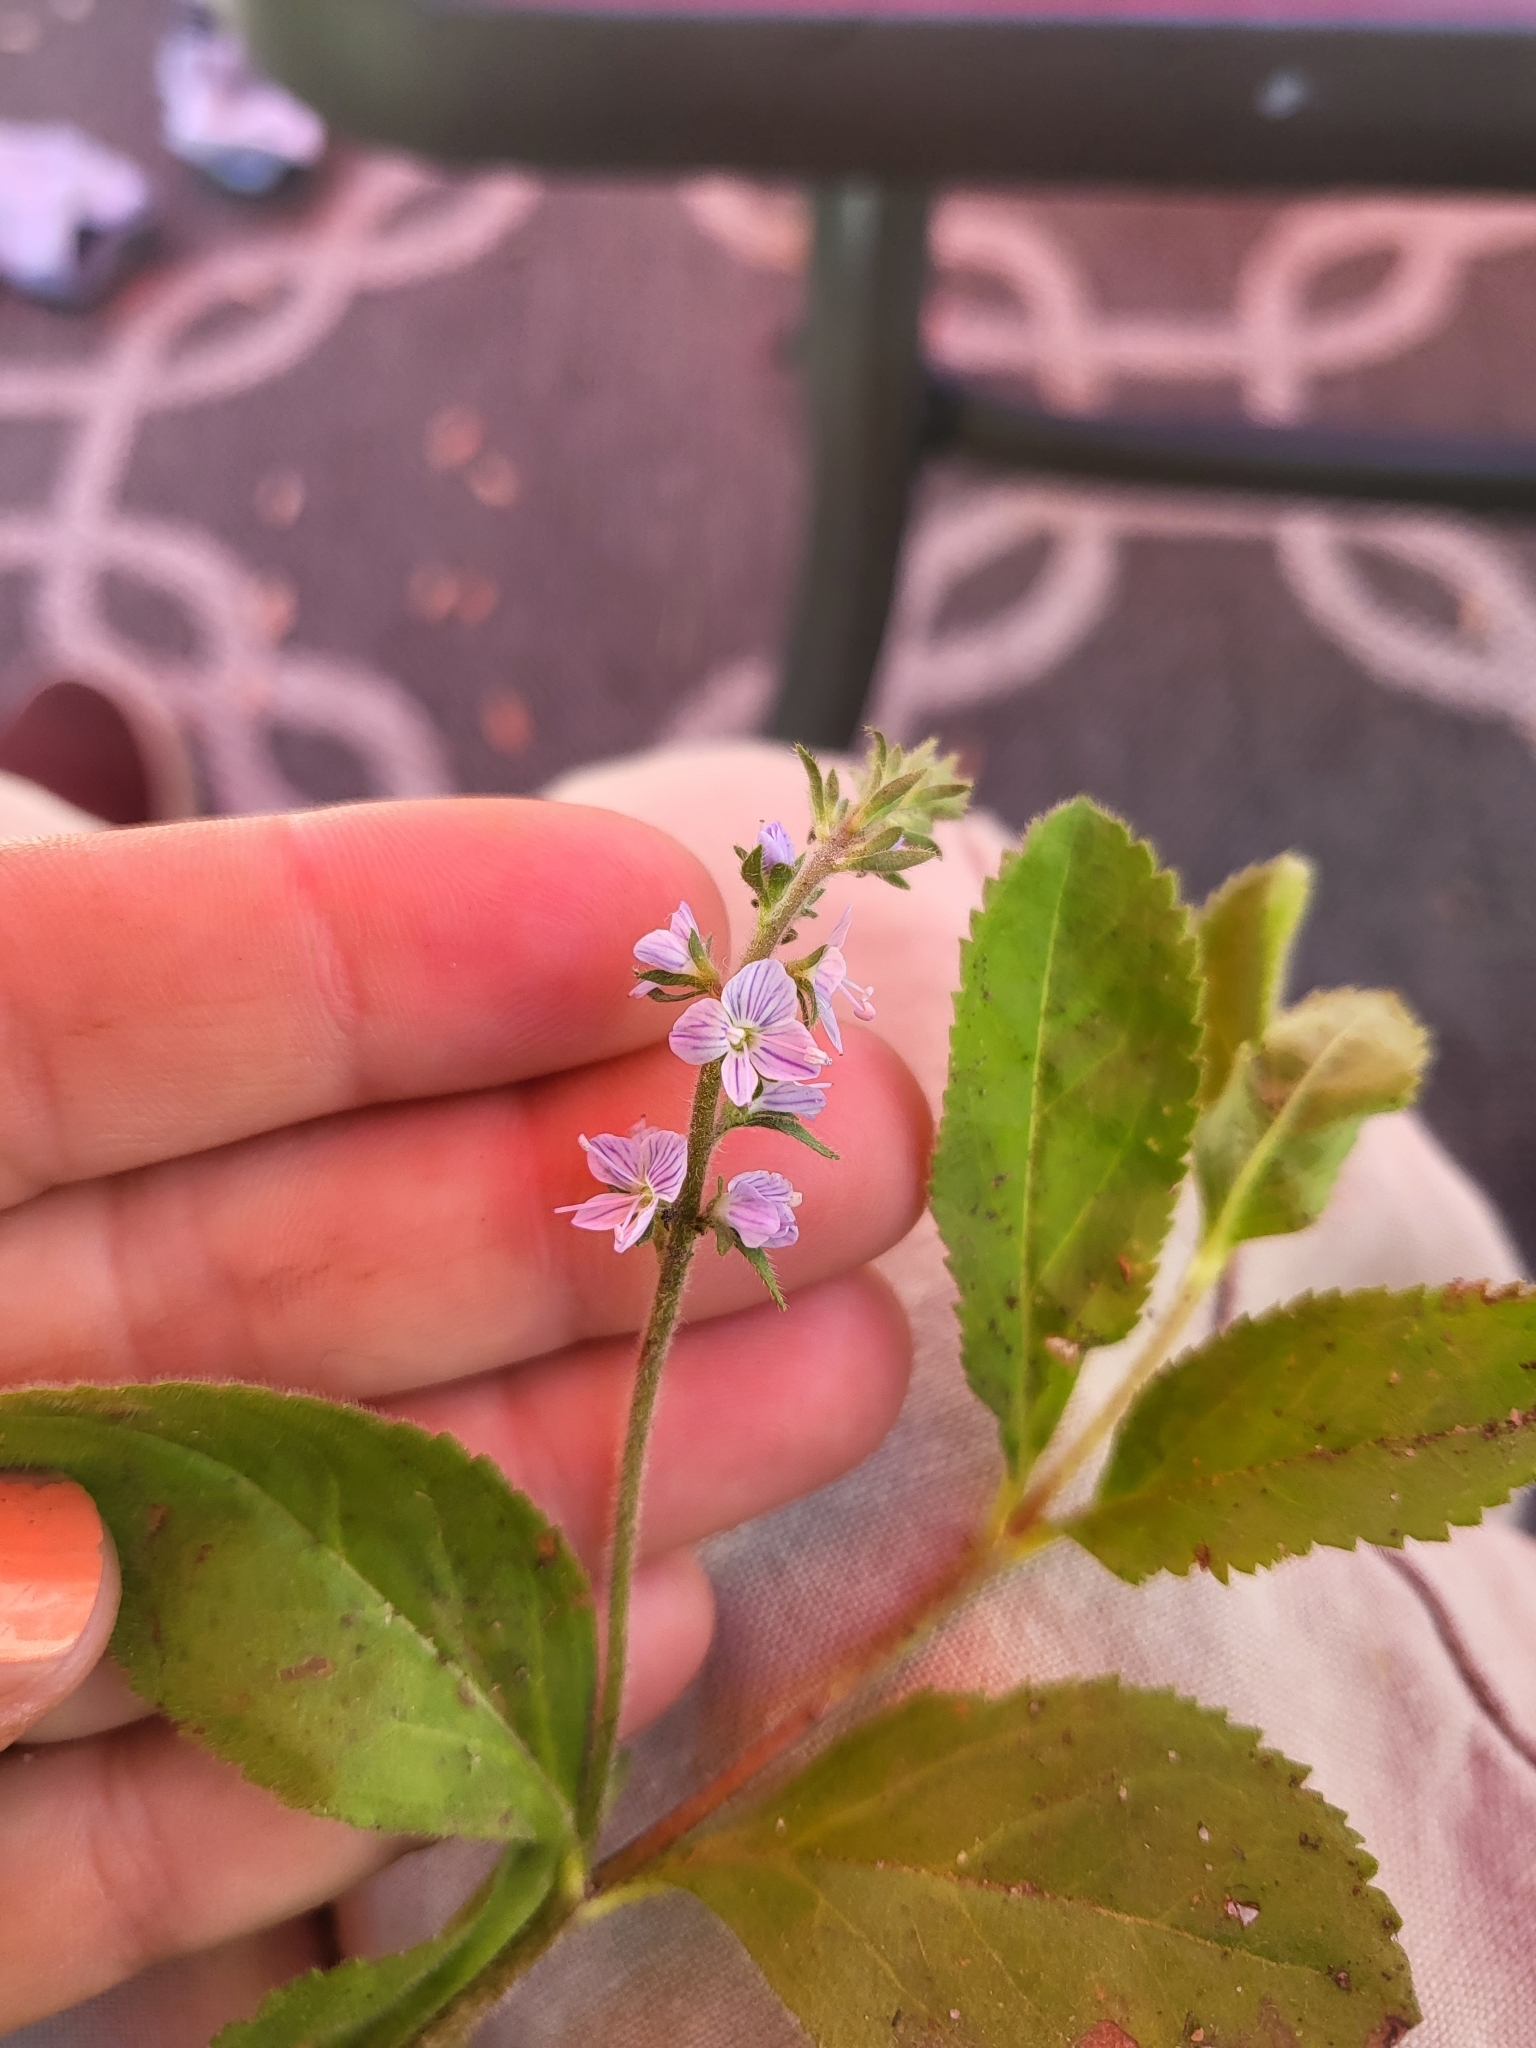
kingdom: Plantae
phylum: Tracheophyta
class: Magnoliopsida
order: Lamiales
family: Plantaginaceae
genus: Veronica
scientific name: Veronica officinalis
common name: Common speedwell
